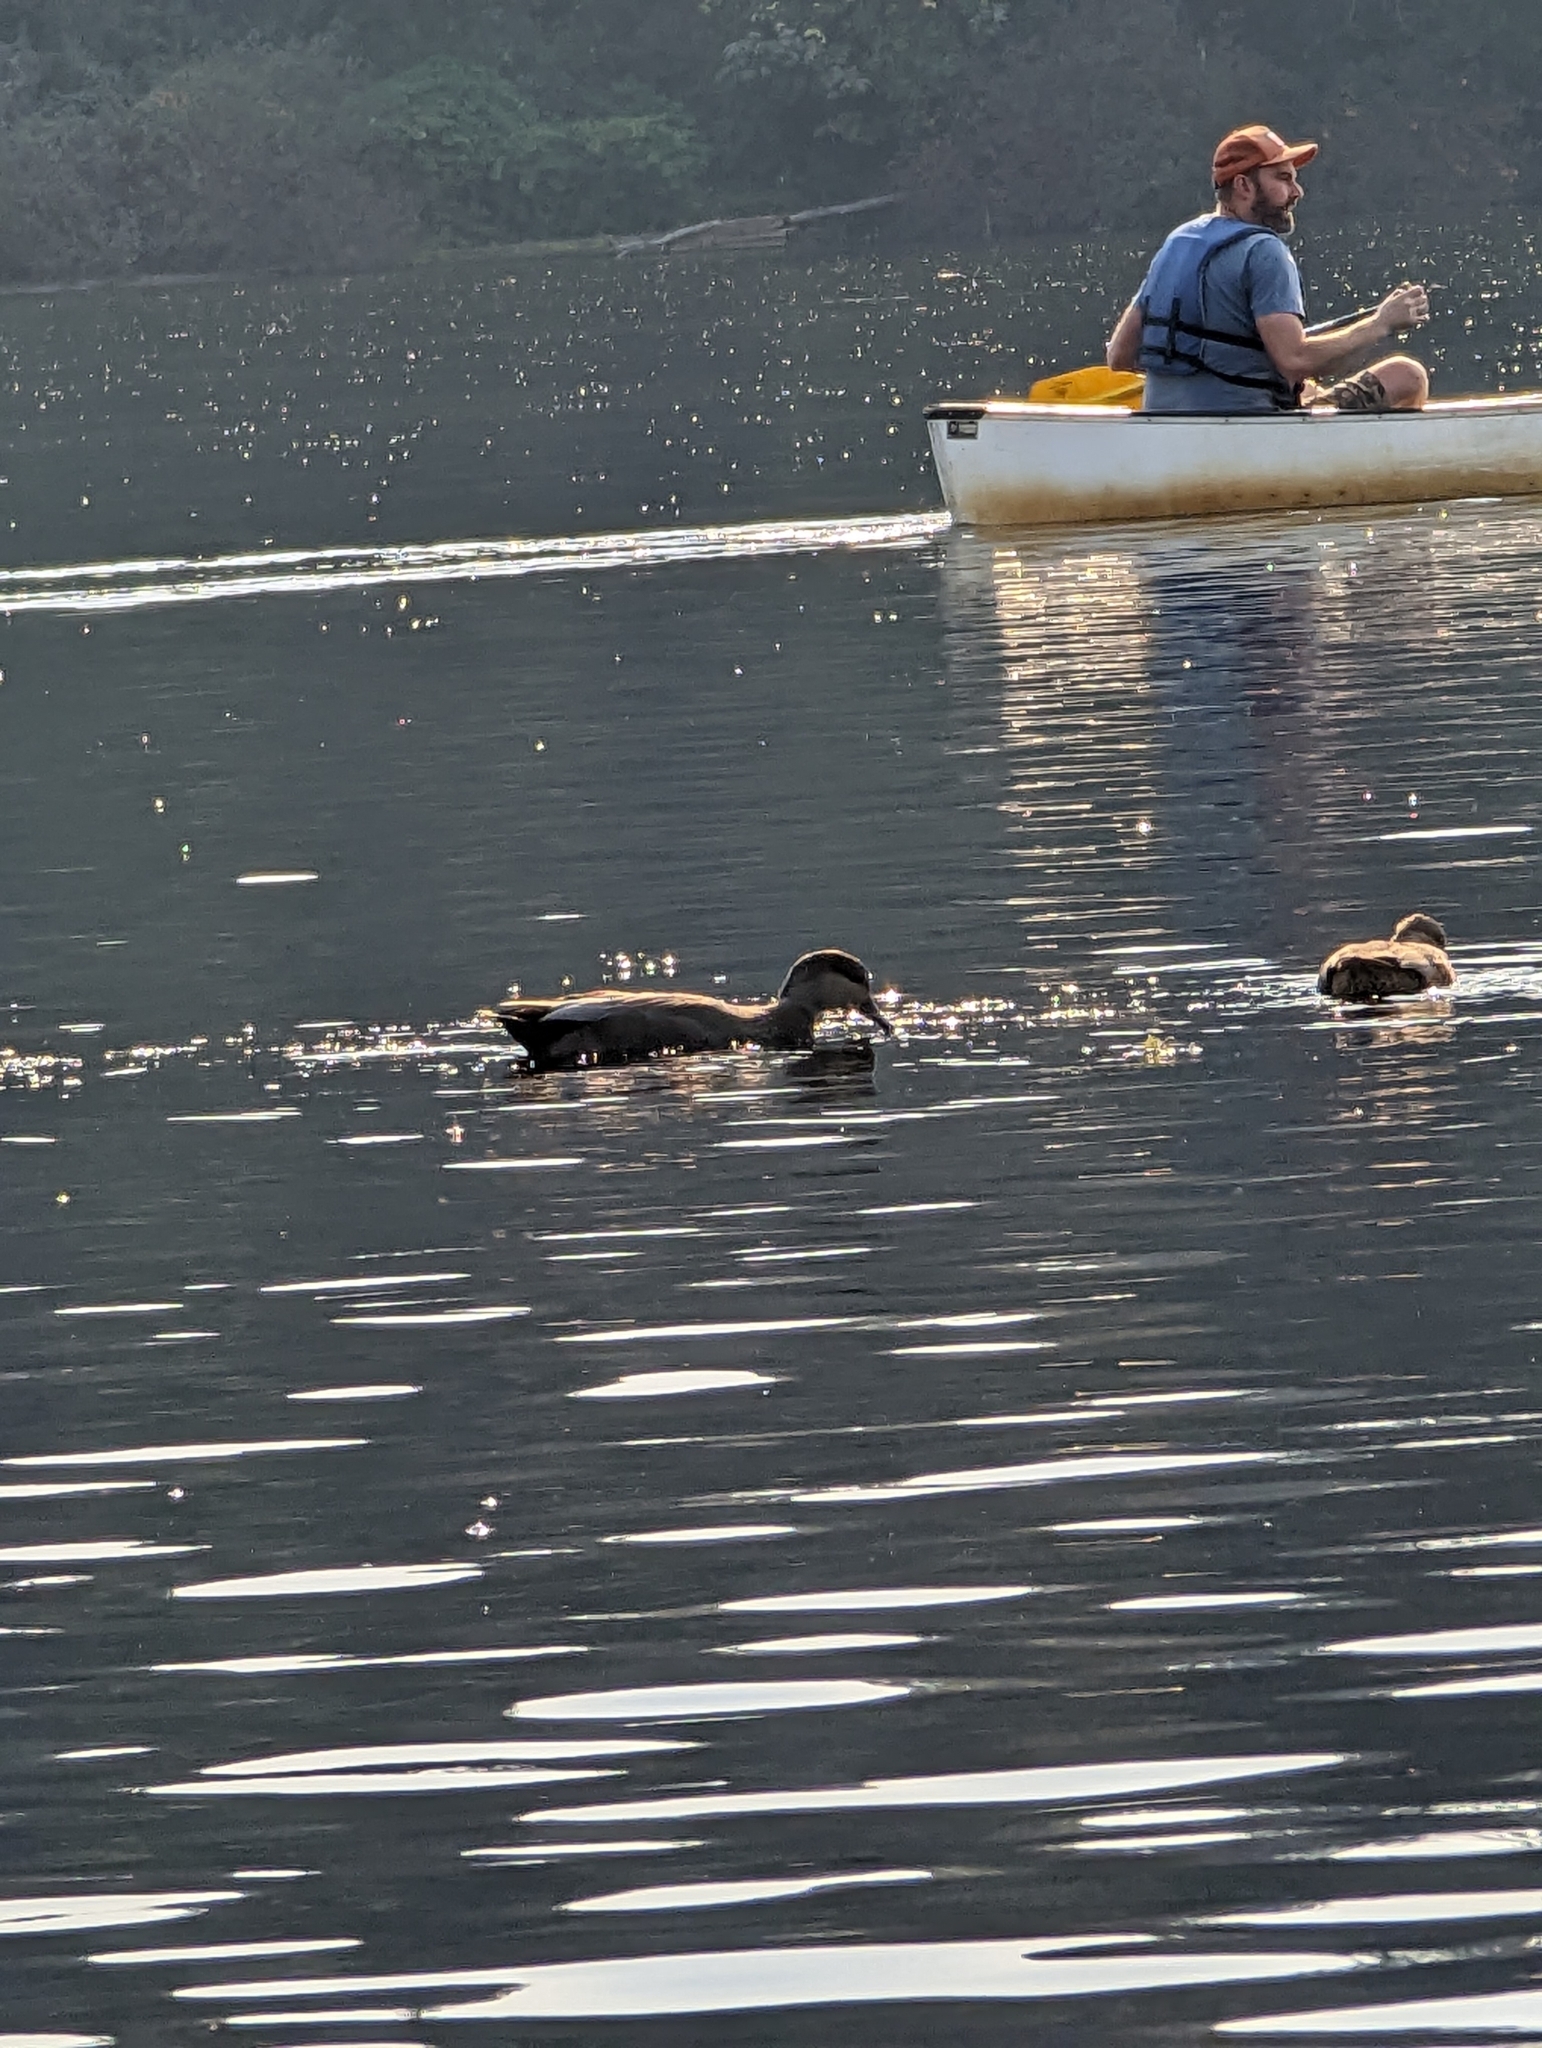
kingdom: Animalia
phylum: Chordata
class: Aves
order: Anseriformes
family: Anatidae
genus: Mareca
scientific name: Mareca strepera
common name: Gadwall
